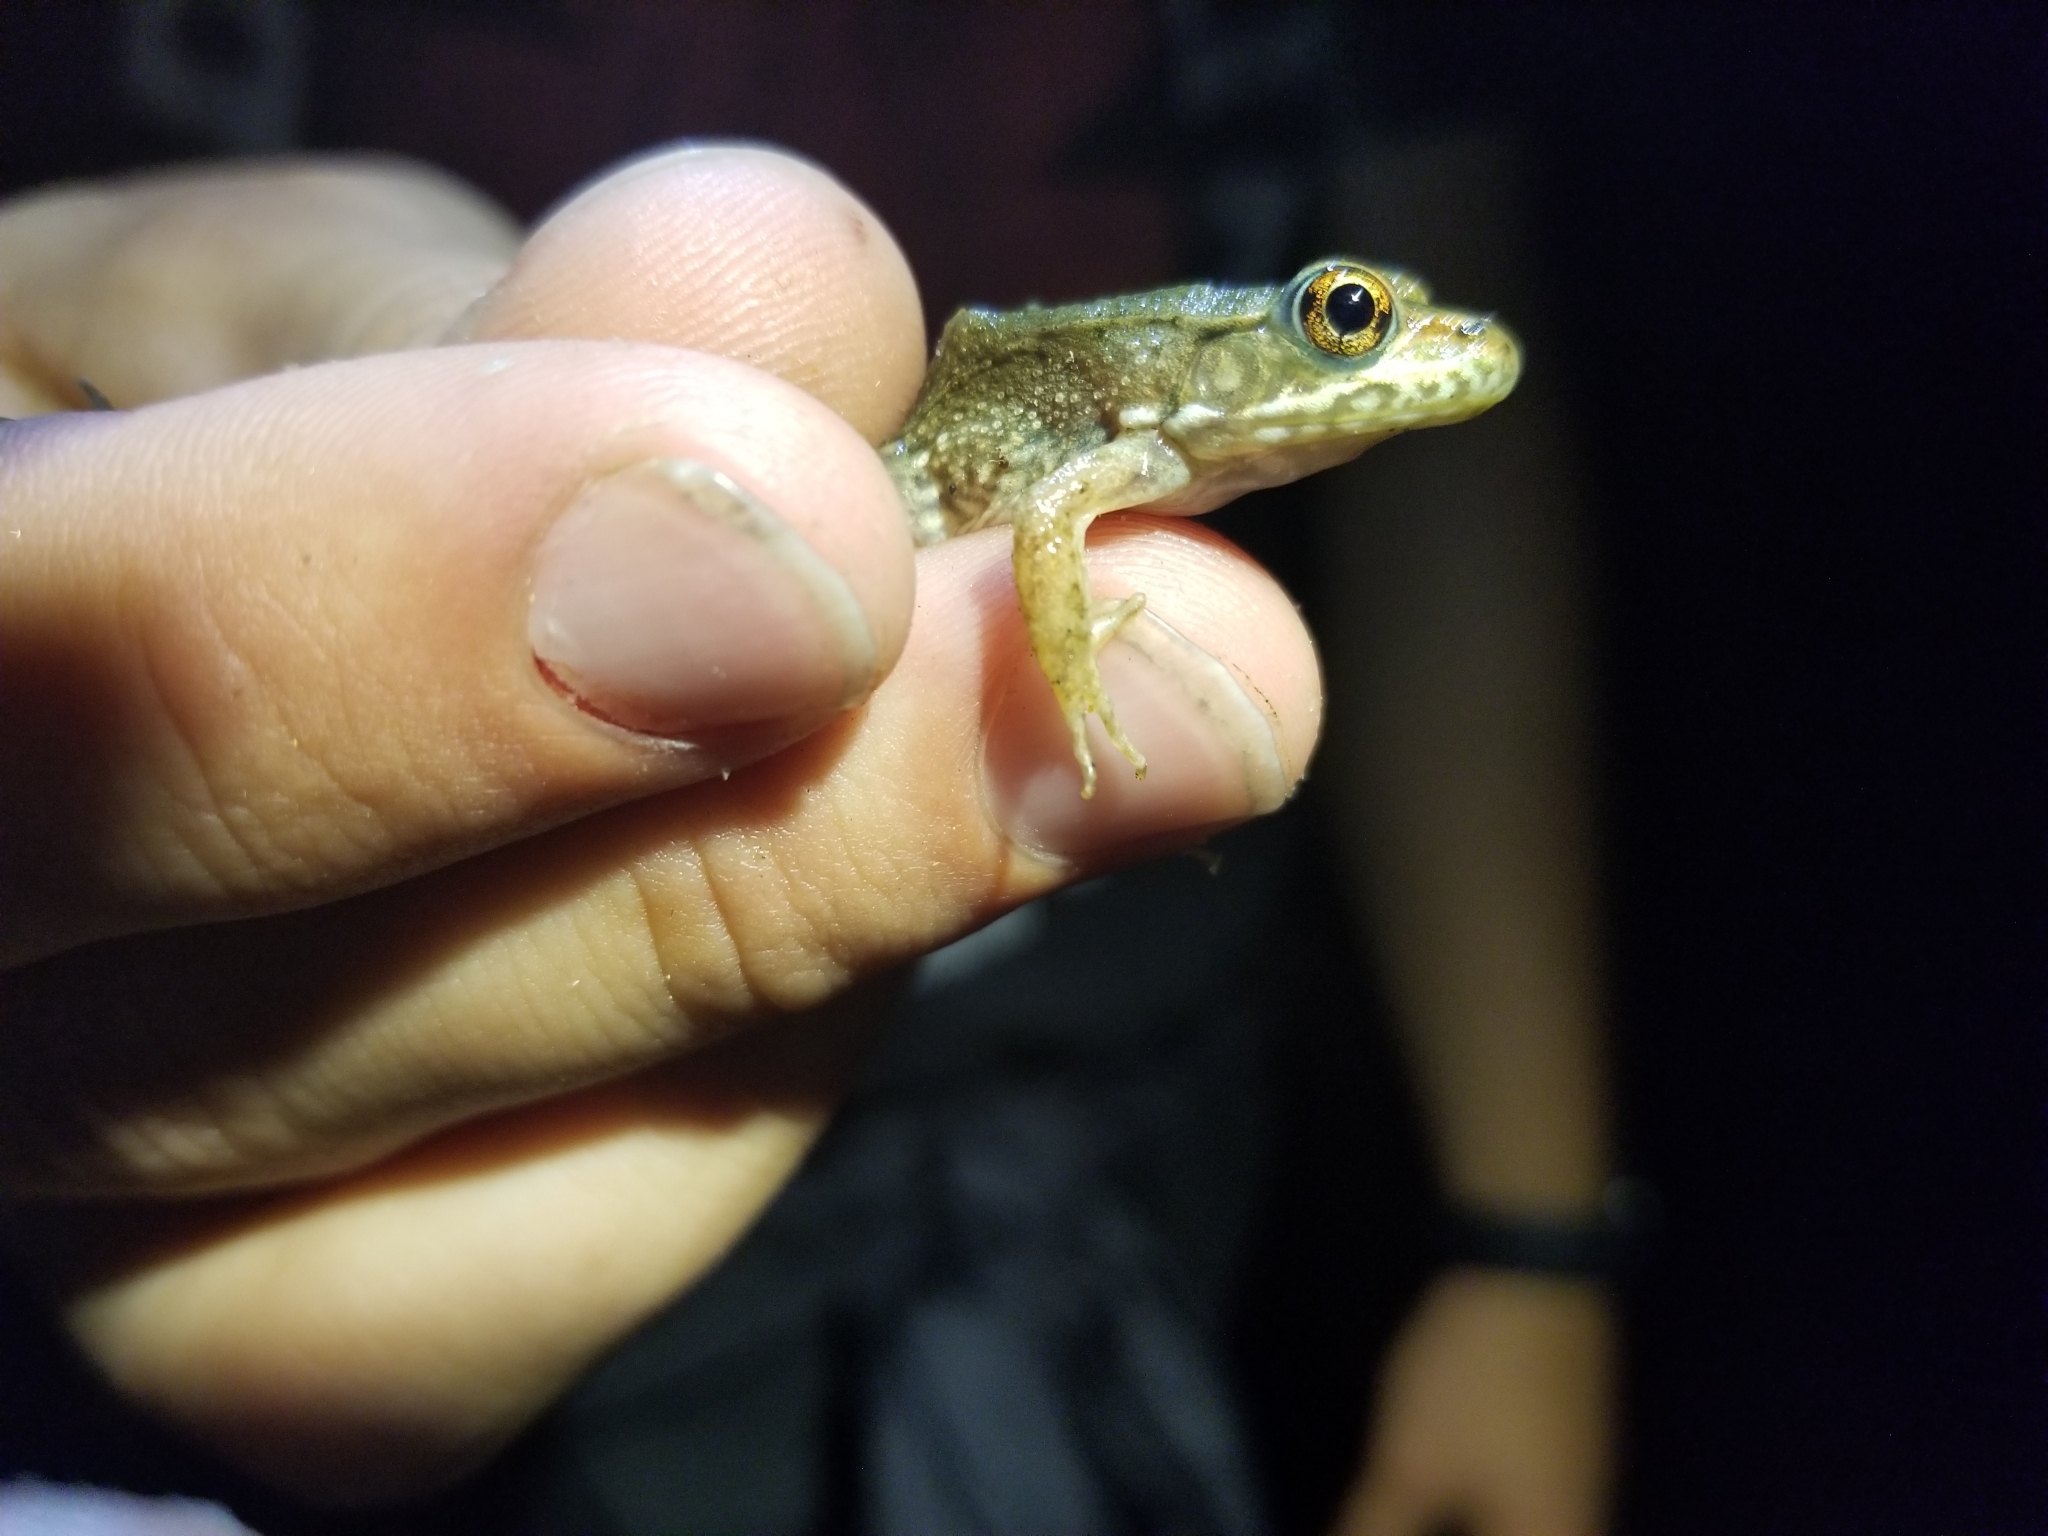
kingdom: Animalia
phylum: Chordata
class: Amphibia
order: Anura
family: Ranidae
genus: Lithobates
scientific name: Lithobates clamitans
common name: Green frog
